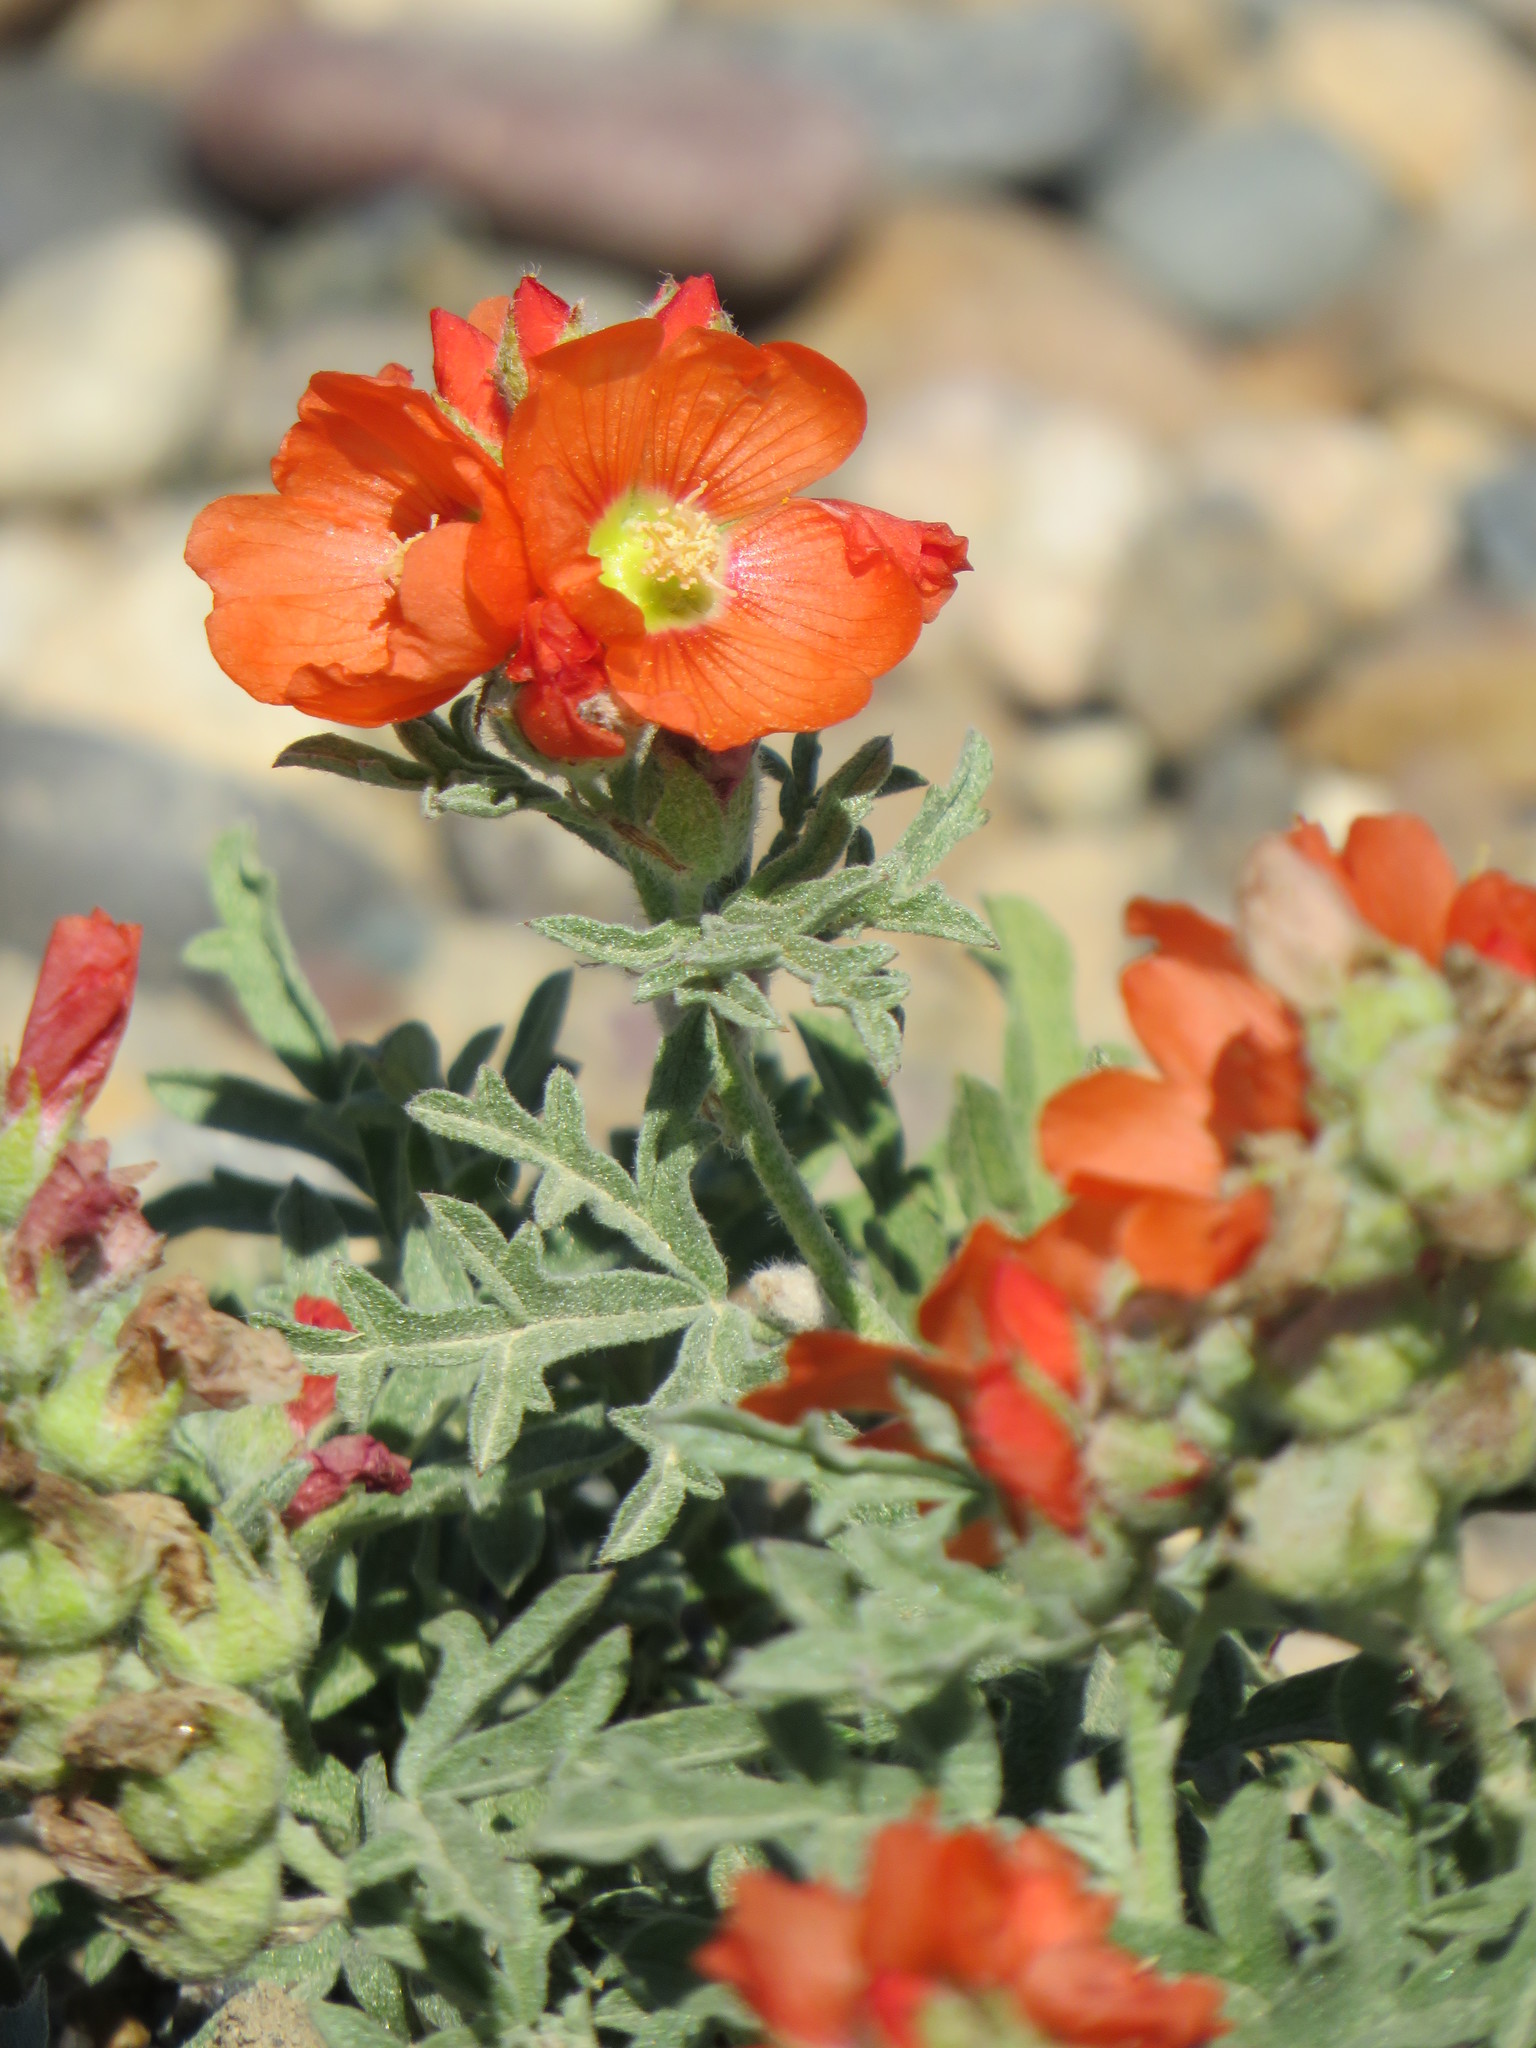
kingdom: Plantae
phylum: Tracheophyta
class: Magnoliopsida
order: Malvales
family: Malvaceae
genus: Sphaeralcea
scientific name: Sphaeralcea coccinea
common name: Moss-rose
